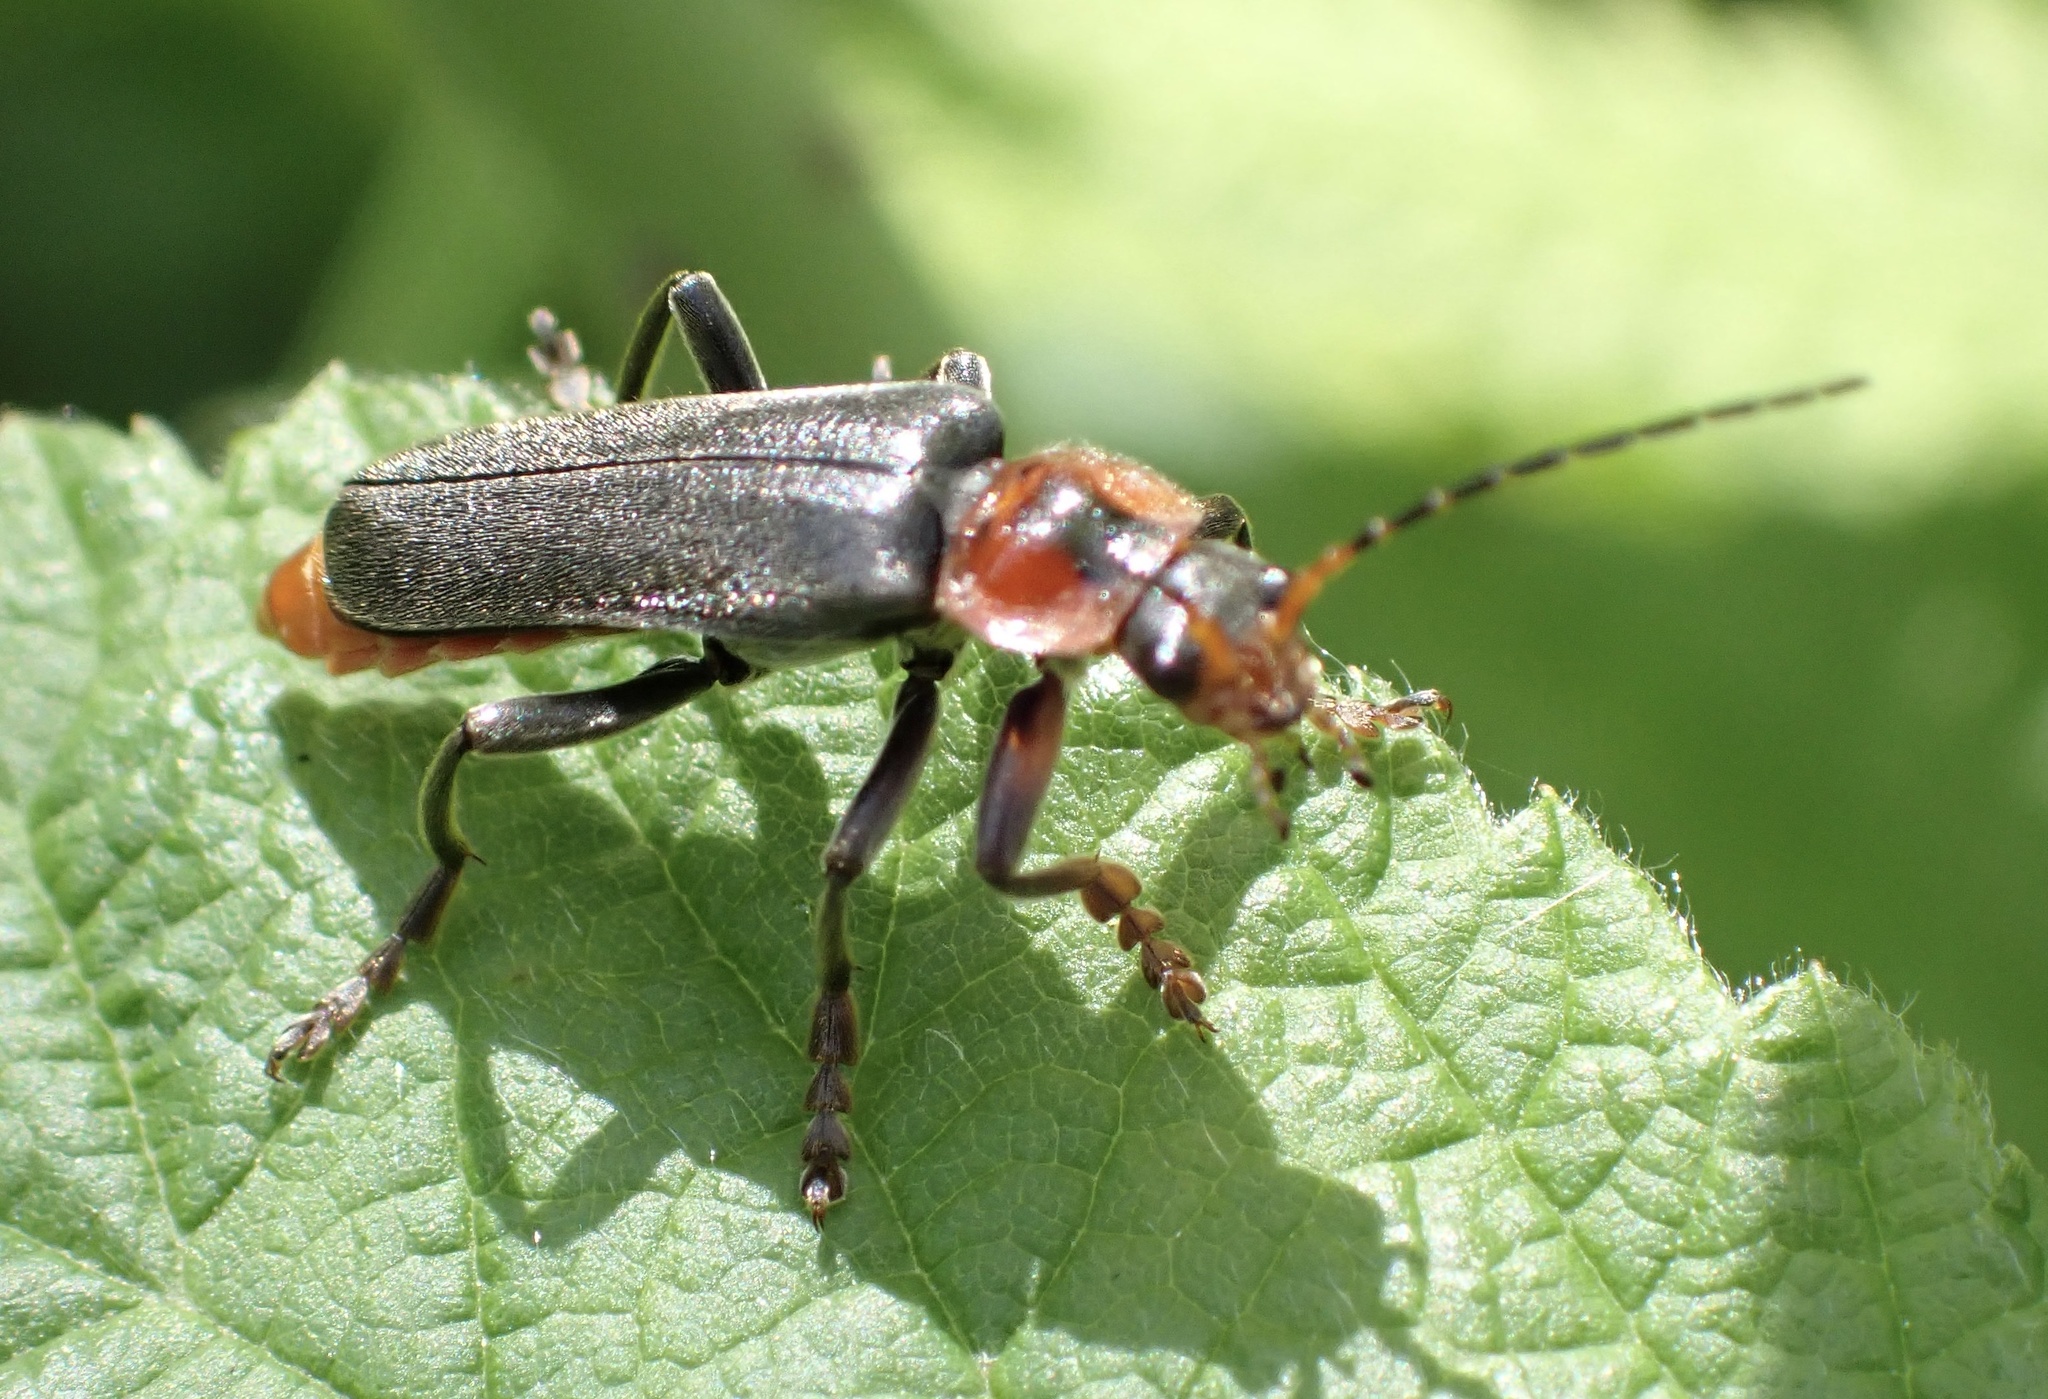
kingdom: Animalia
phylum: Arthropoda
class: Insecta
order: Coleoptera
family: Cantharidae
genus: Cantharis
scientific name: Cantharis fusca
